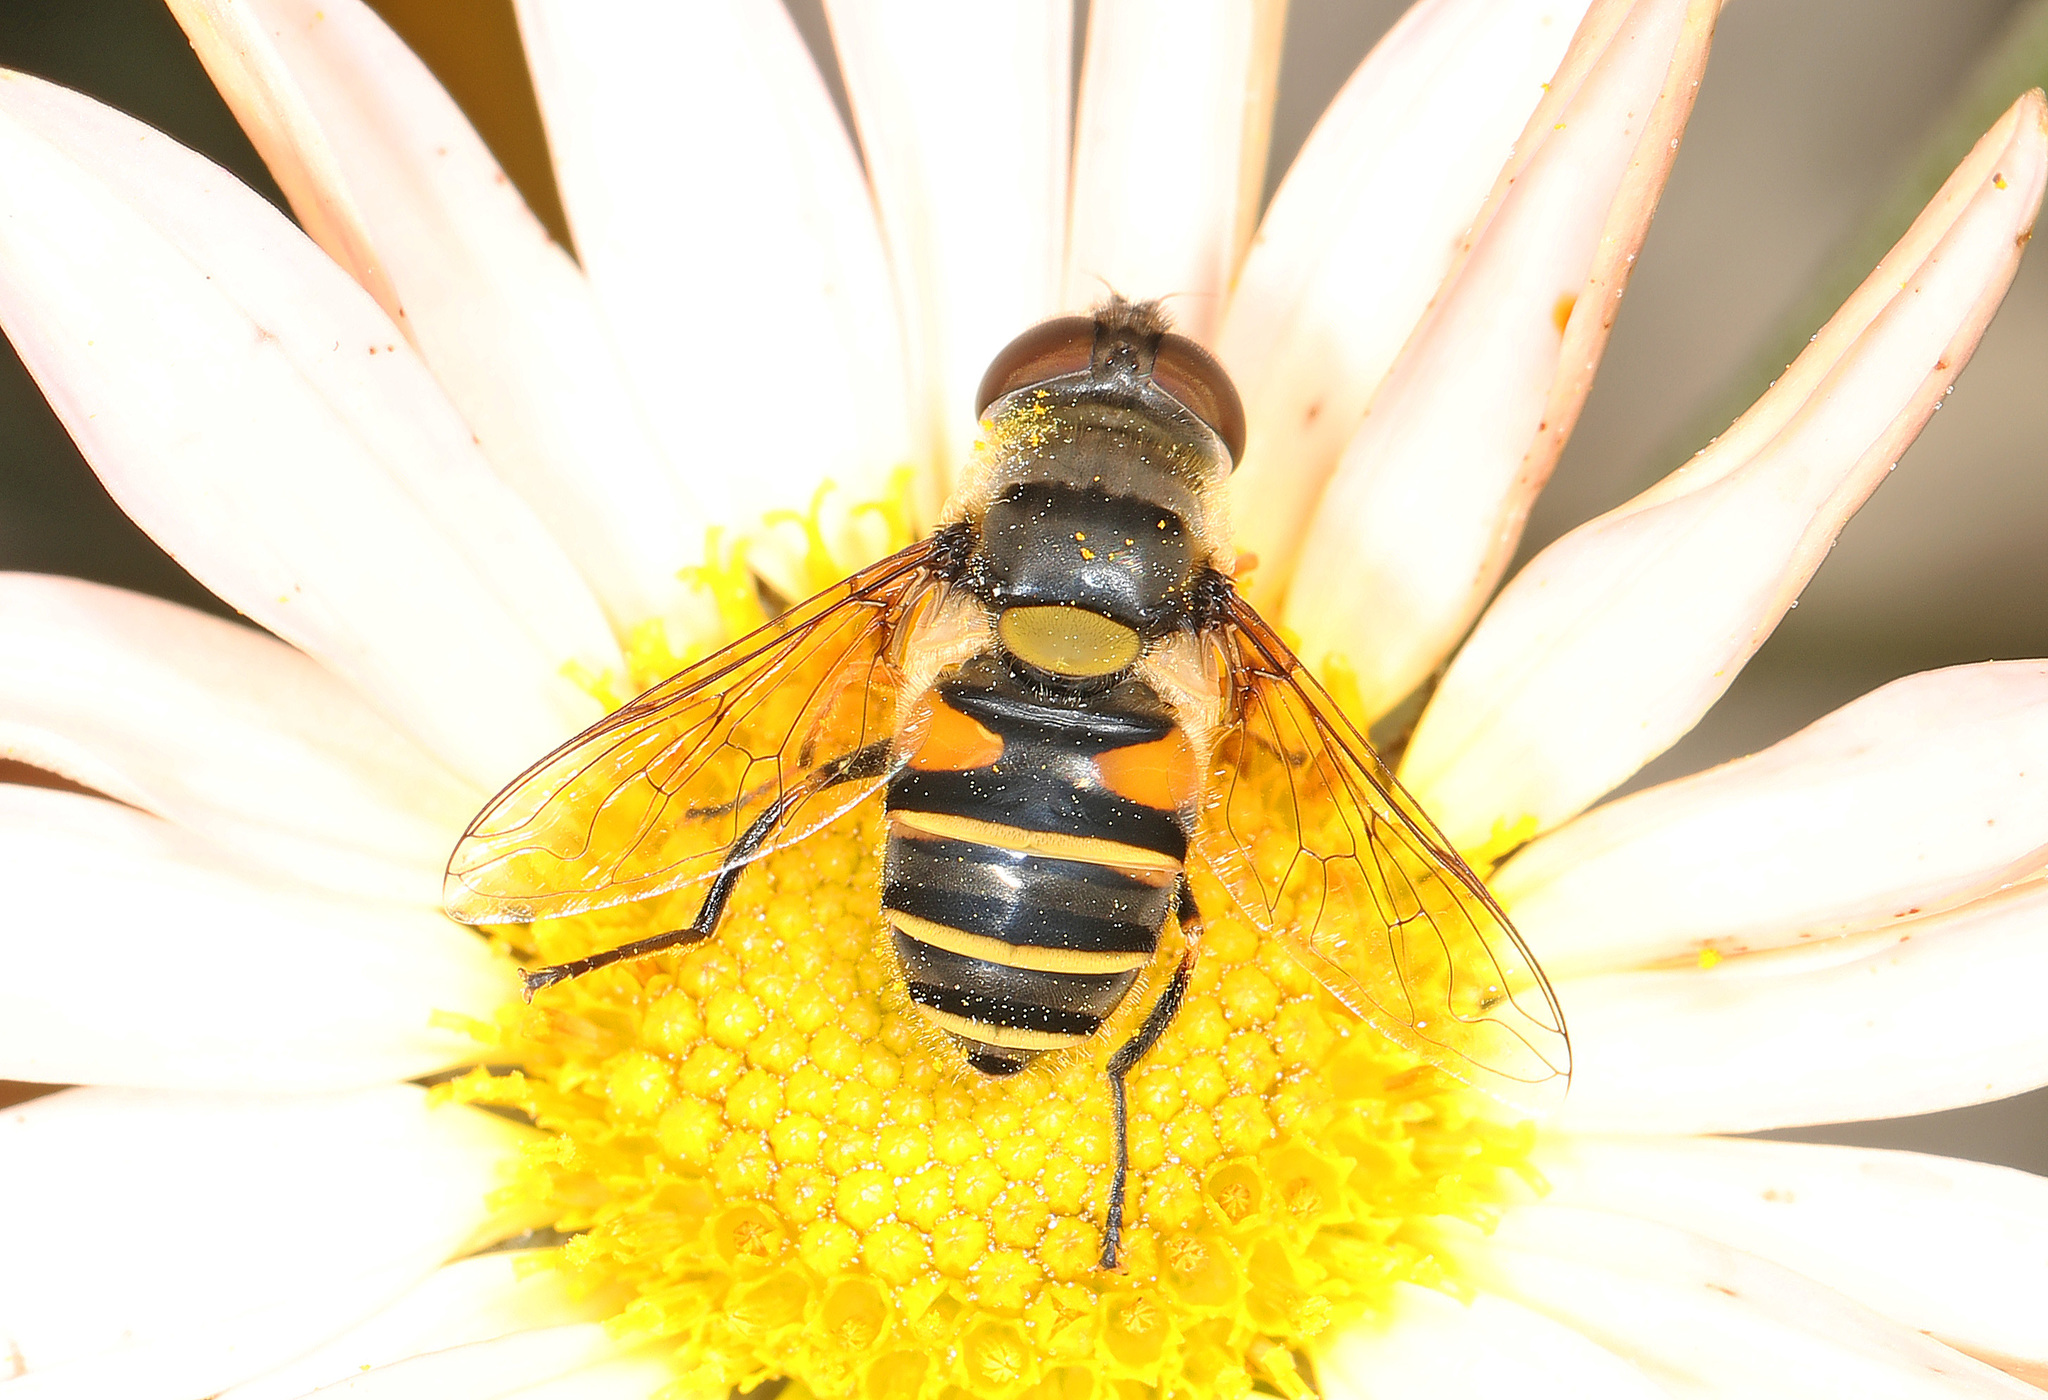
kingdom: Animalia
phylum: Arthropoda
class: Insecta
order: Diptera
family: Syrphidae
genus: Eristalis
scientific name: Eristalis transversa
